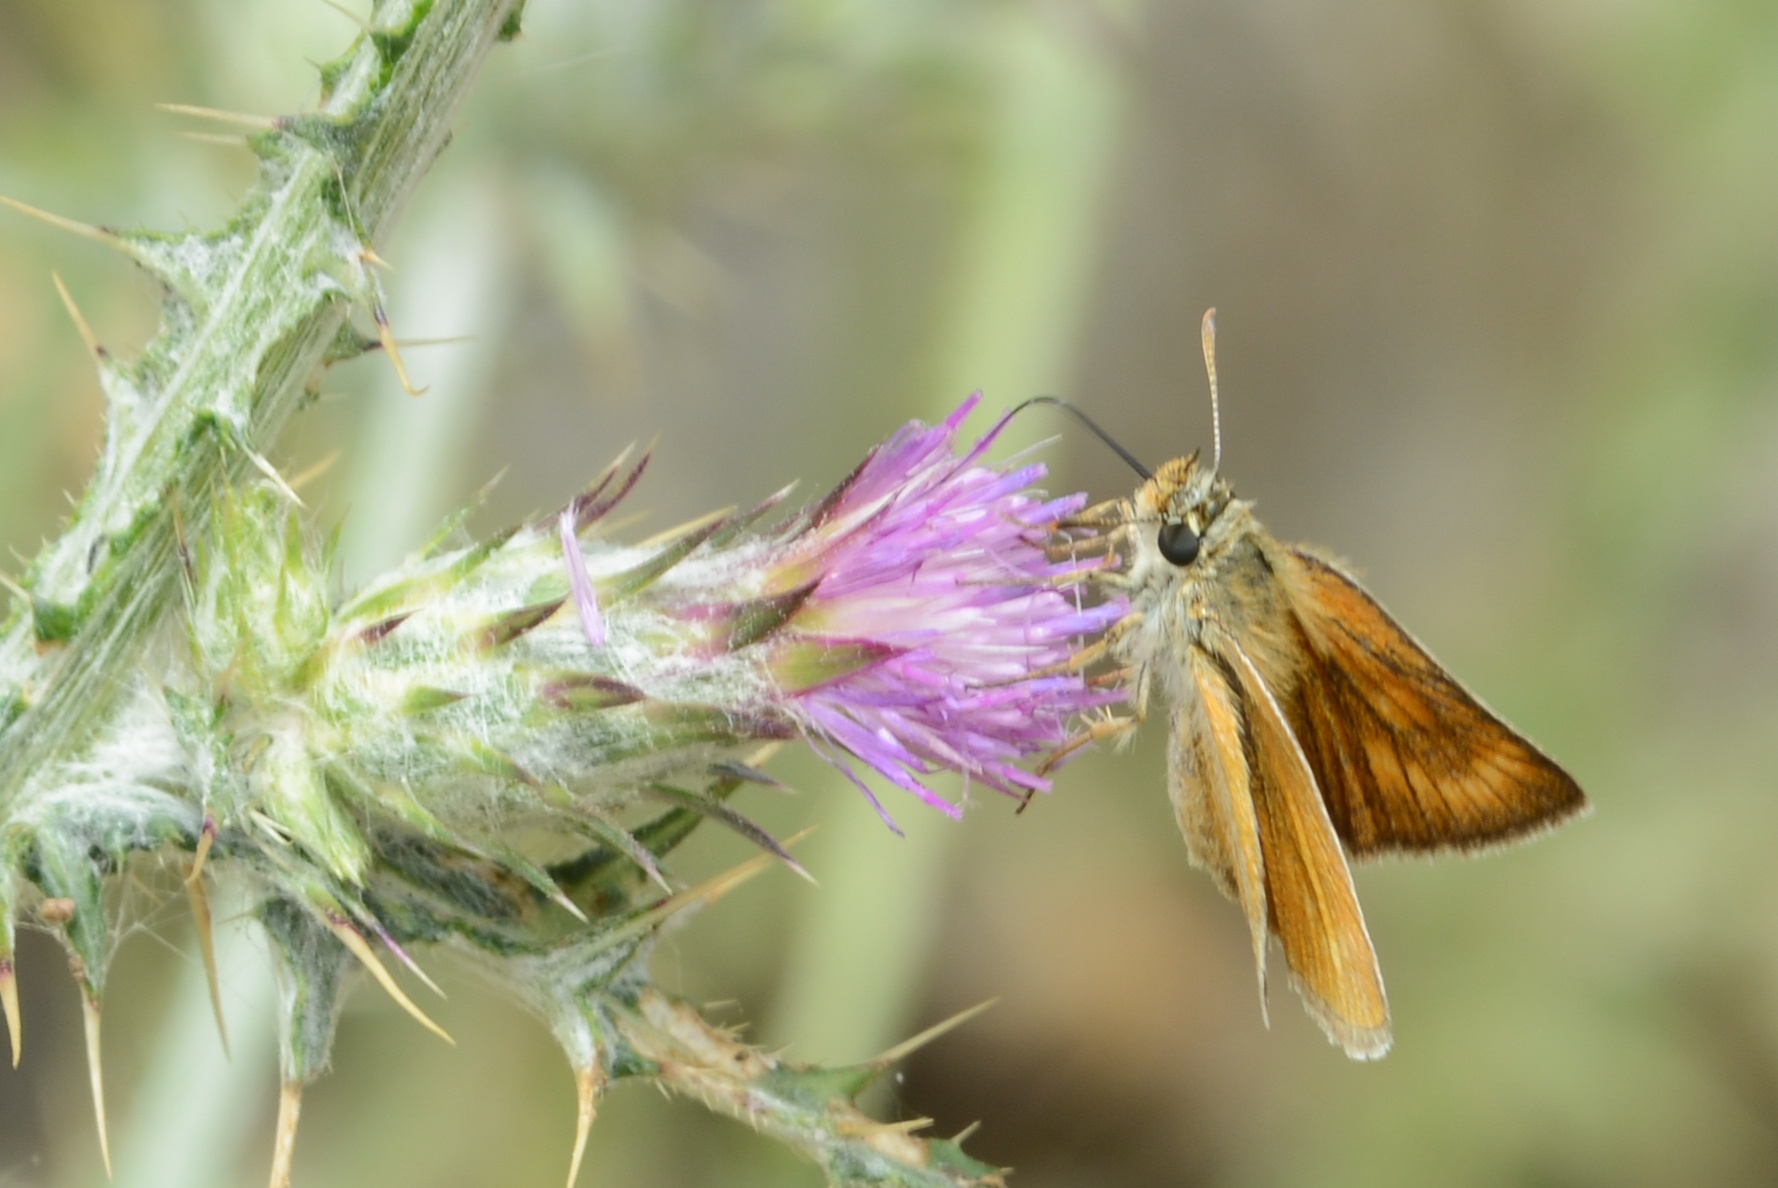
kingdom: Animalia
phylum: Arthropoda
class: Insecta
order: Lepidoptera
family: Hesperiidae
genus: Thymelicus
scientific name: Thymelicus acteon
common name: Lulworth skipper
